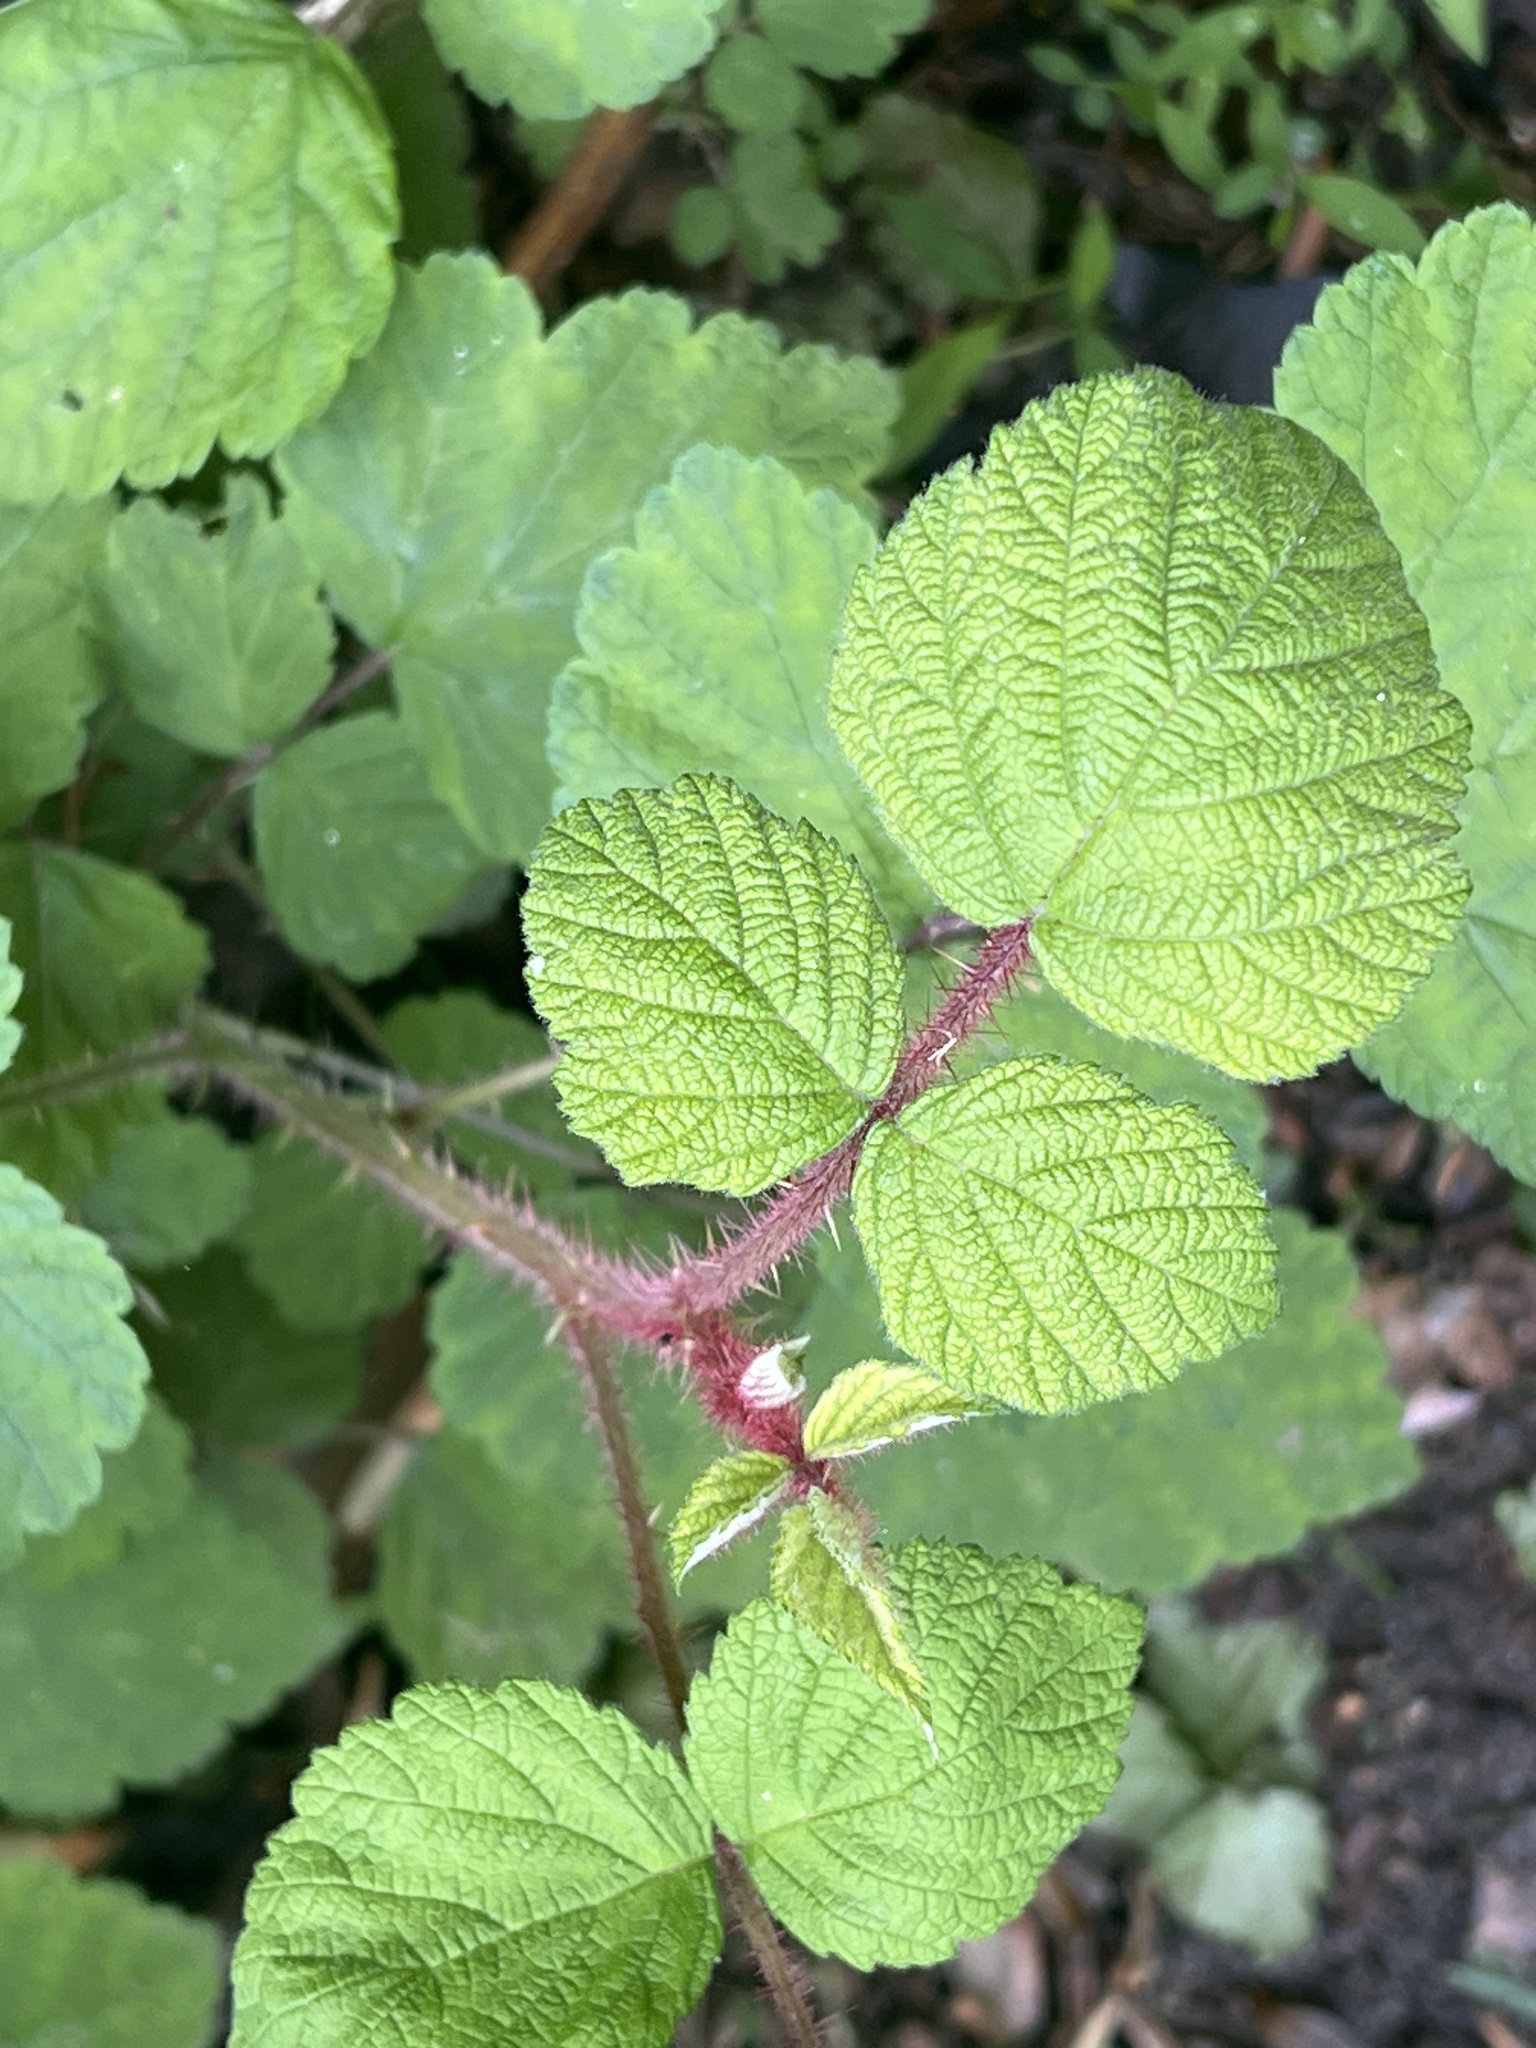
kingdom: Plantae
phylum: Tracheophyta
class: Magnoliopsida
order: Rosales
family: Rosaceae
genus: Rubus
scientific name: Rubus phoenicolasius
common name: Japanese wineberry
